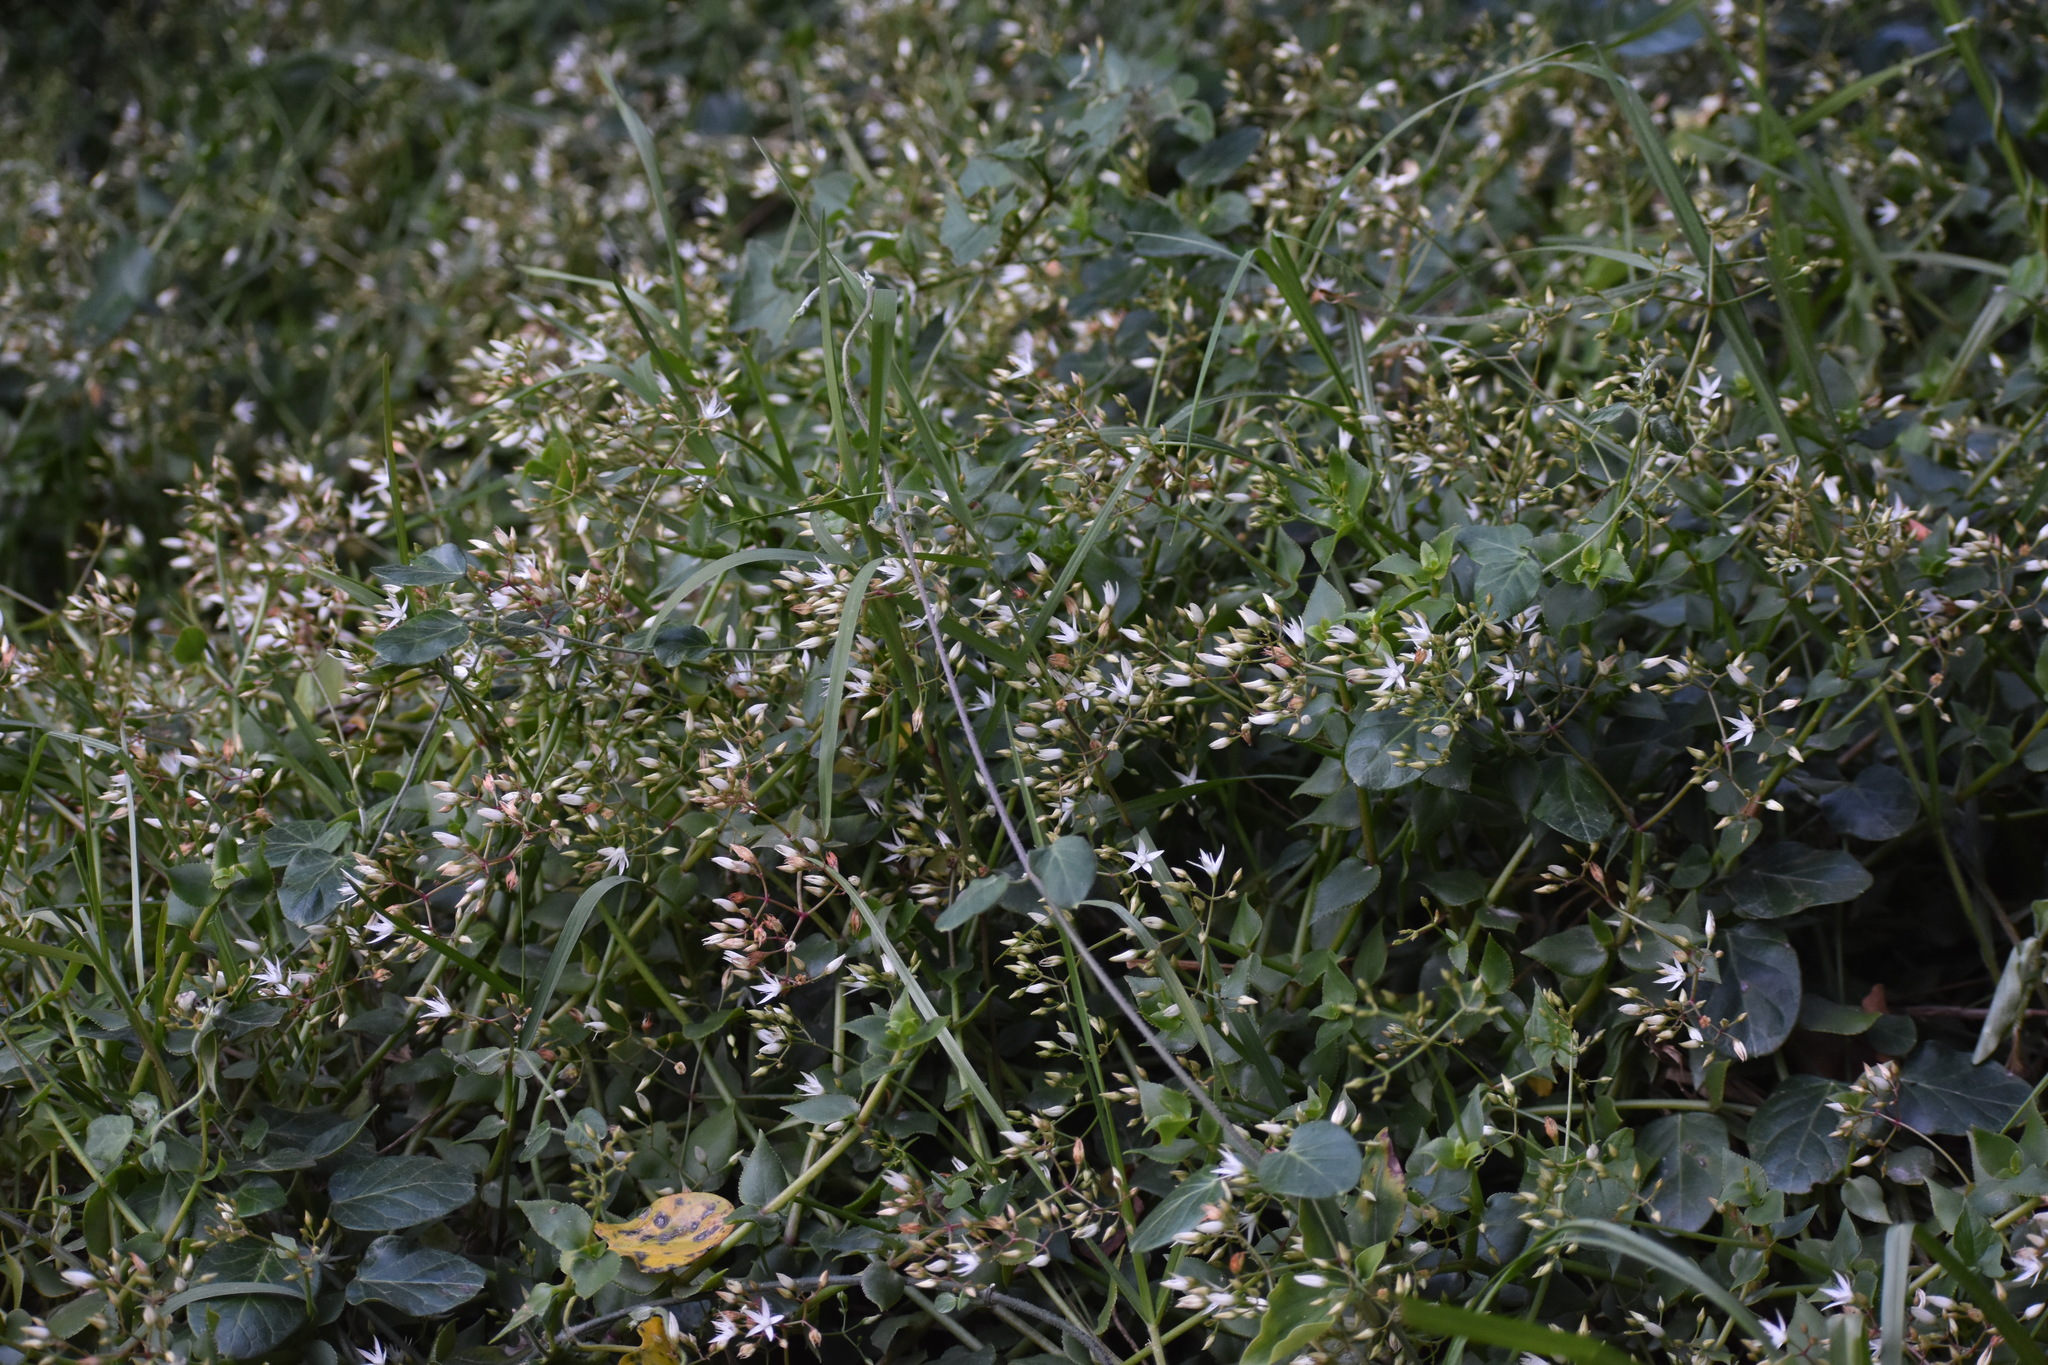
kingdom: Plantae
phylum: Tracheophyta
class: Magnoliopsida
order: Saxifragales
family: Crassulaceae
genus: Crassula
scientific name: Crassula sarmentosa
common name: Jade-tree
